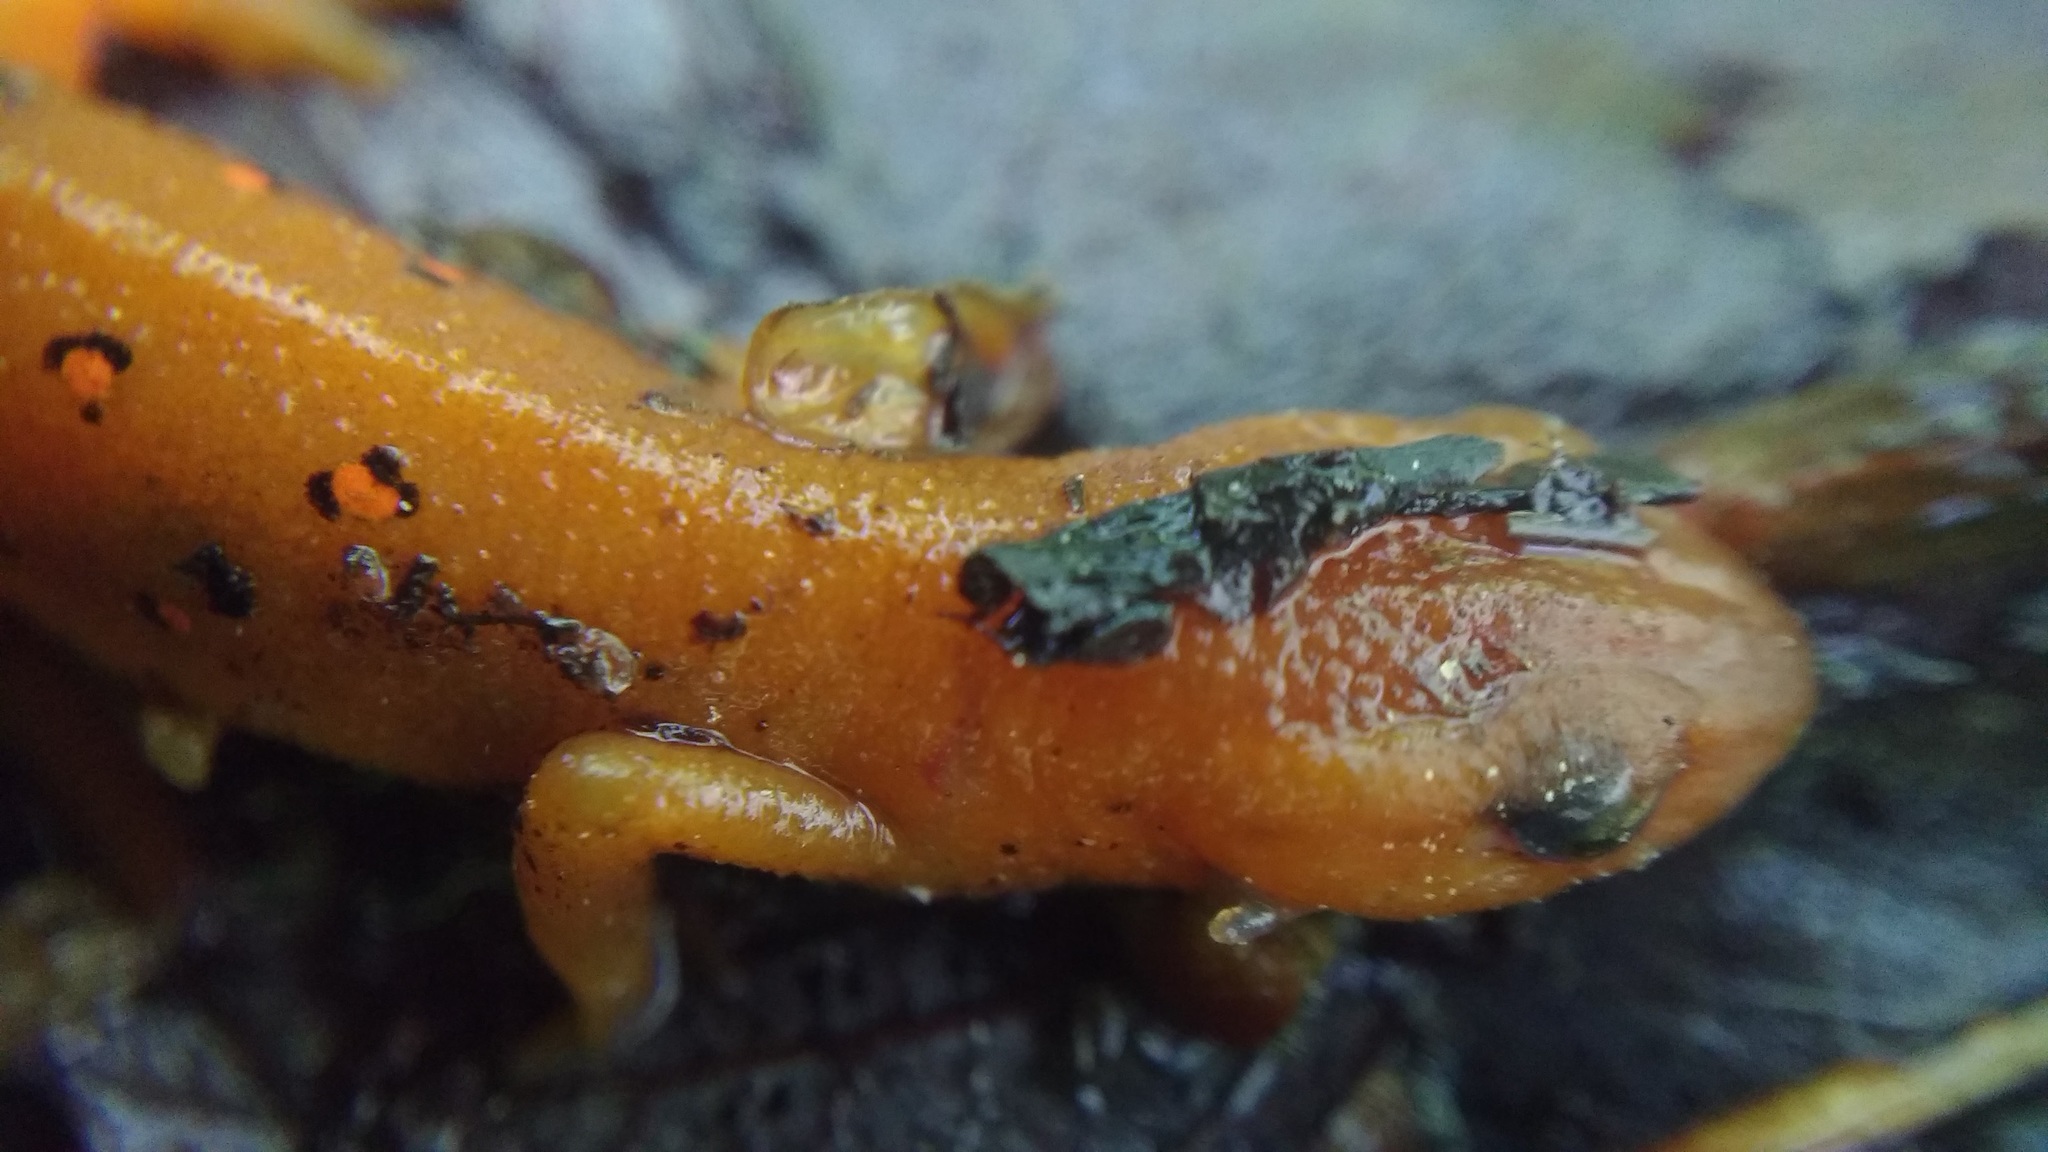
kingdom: Animalia
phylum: Chordata
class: Amphibia
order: Caudata
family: Salamandridae
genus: Notophthalmus
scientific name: Notophthalmus viridescens
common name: Eastern newt
